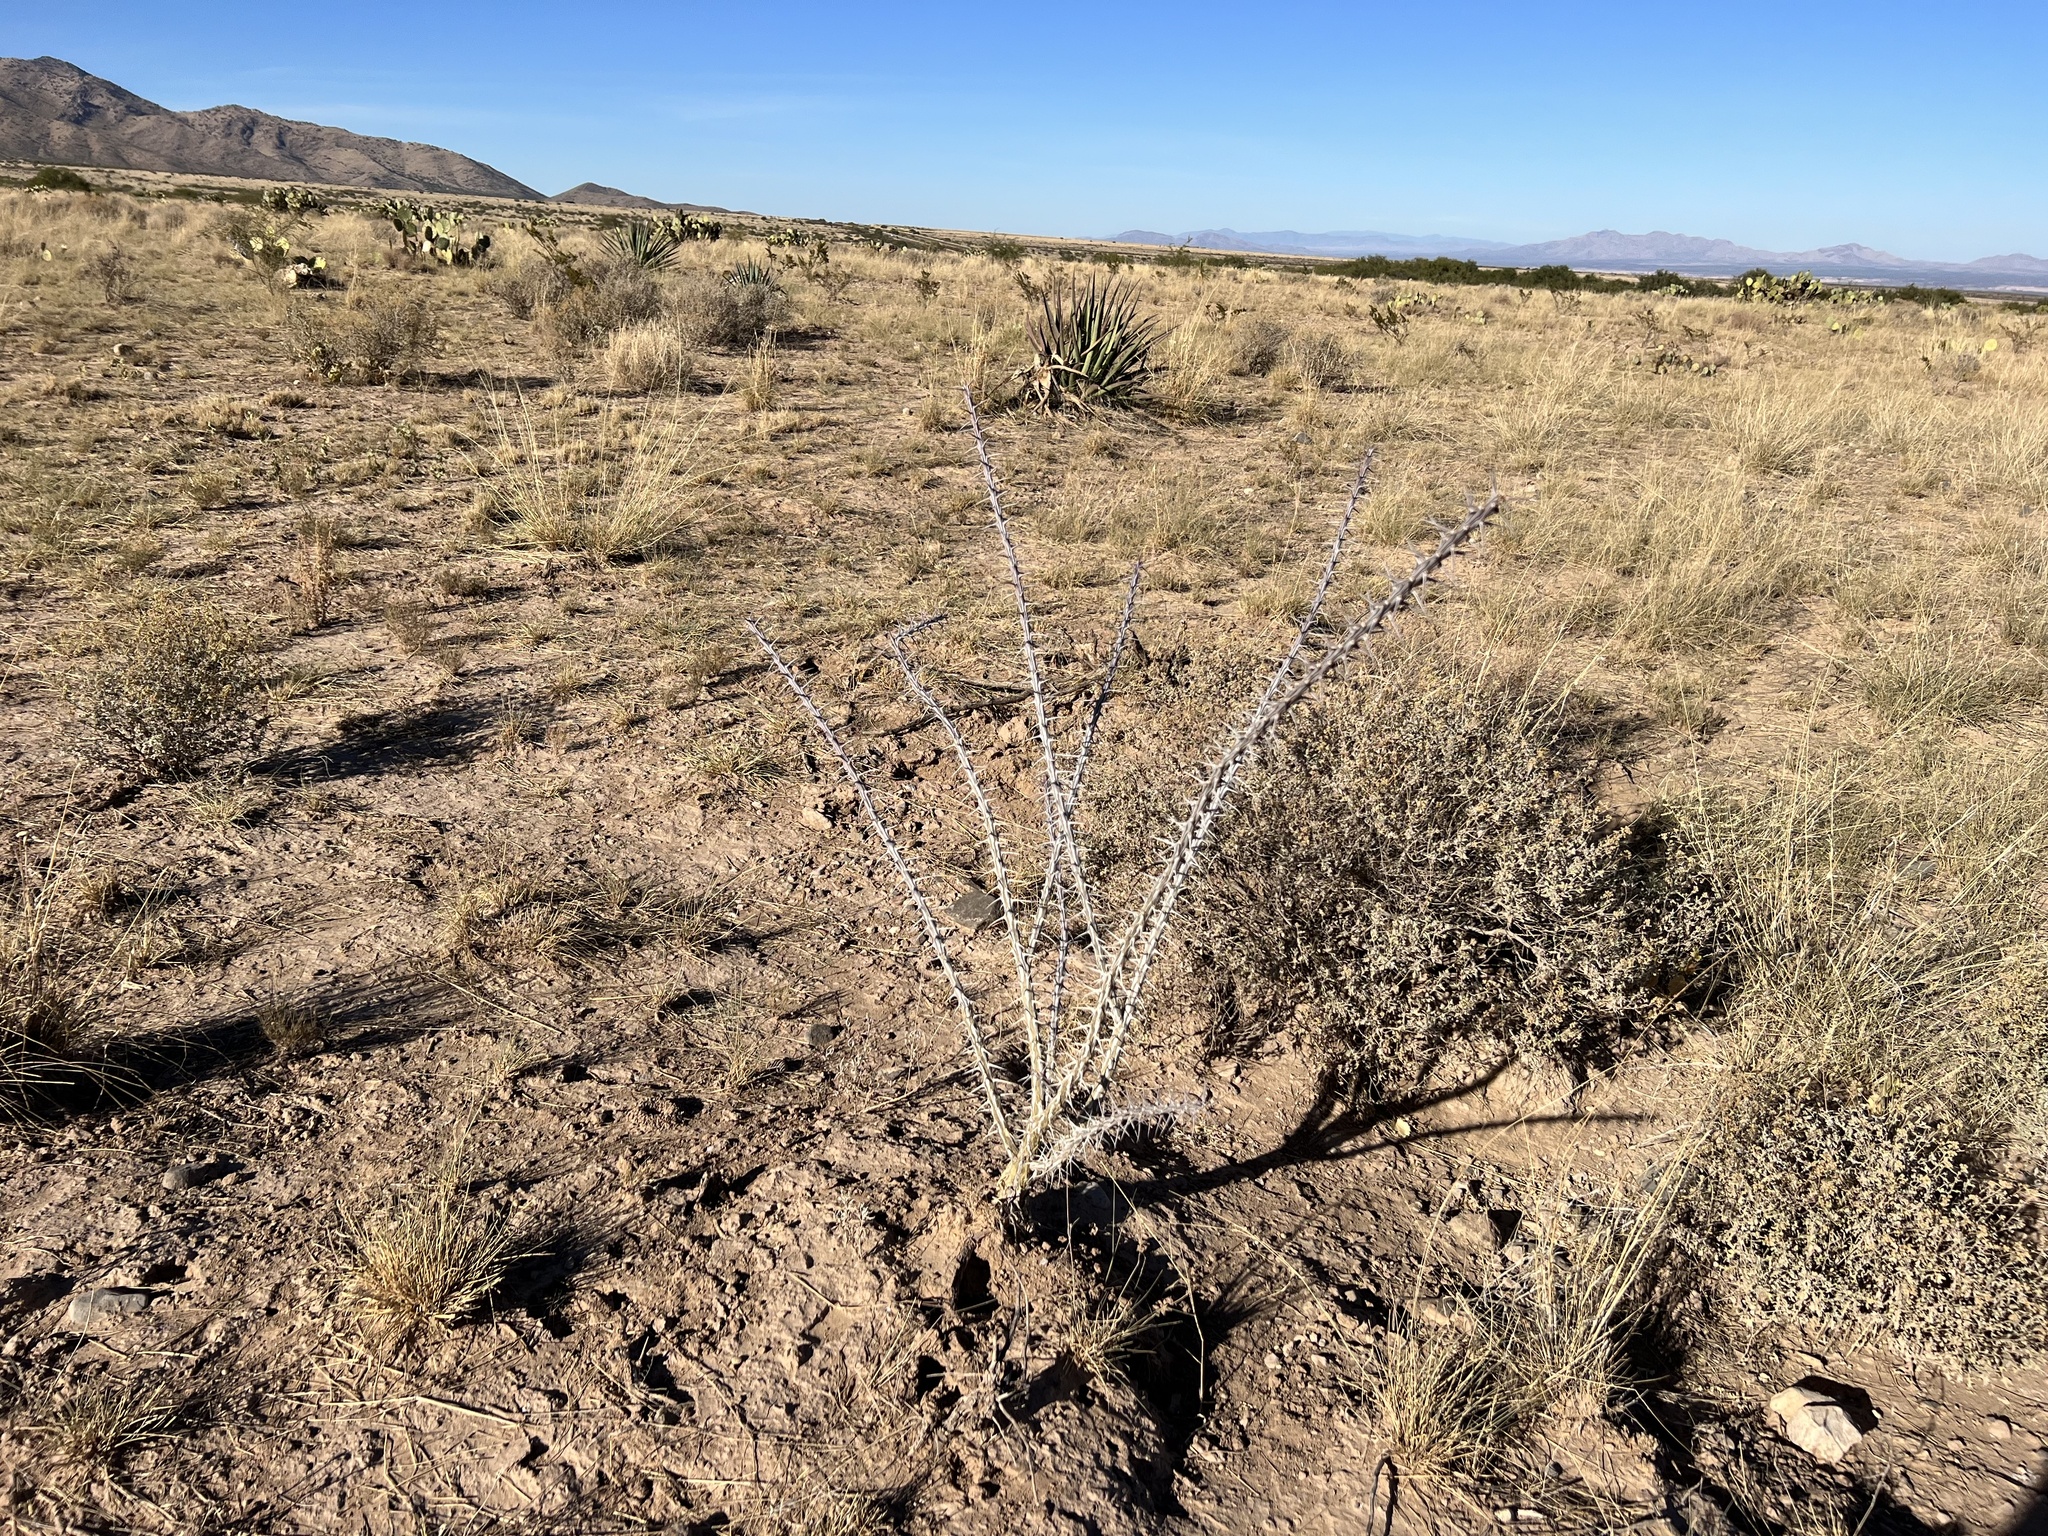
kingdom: Plantae
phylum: Tracheophyta
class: Magnoliopsida
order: Ericales
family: Fouquieriaceae
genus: Fouquieria
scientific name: Fouquieria splendens
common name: Vine-cactus
